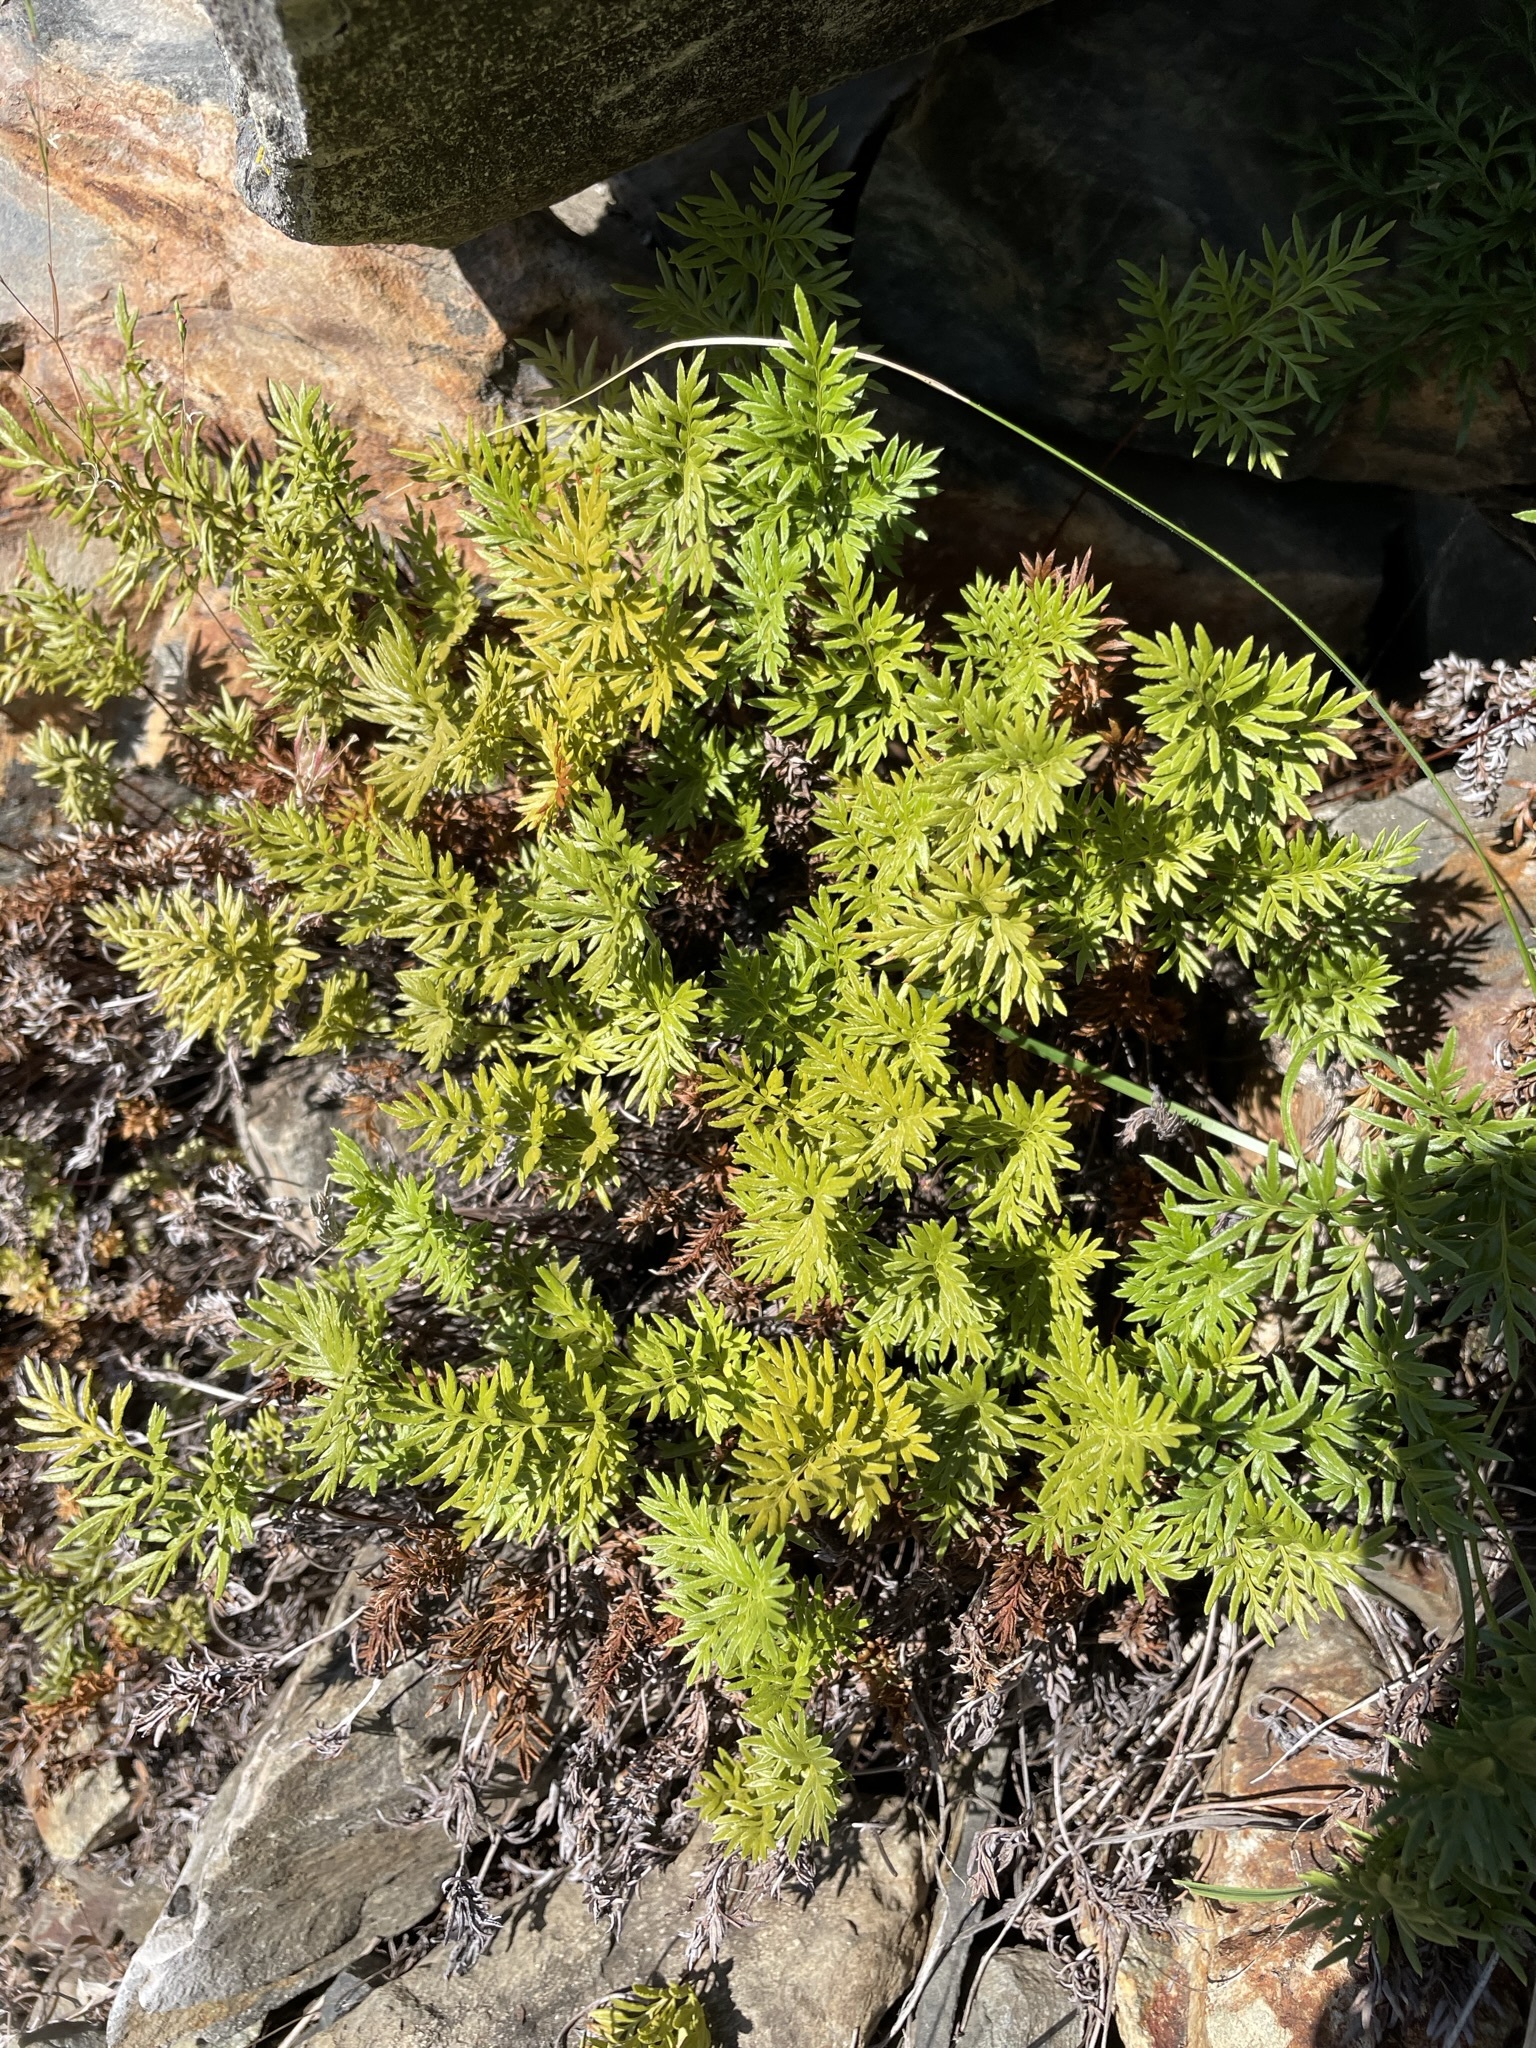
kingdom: Plantae
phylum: Tracheophyta
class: Polypodiopsida
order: Polypodiales
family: Pteridaceae
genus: Aspidotis
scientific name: Aspidotis densa
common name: Indian's dream
